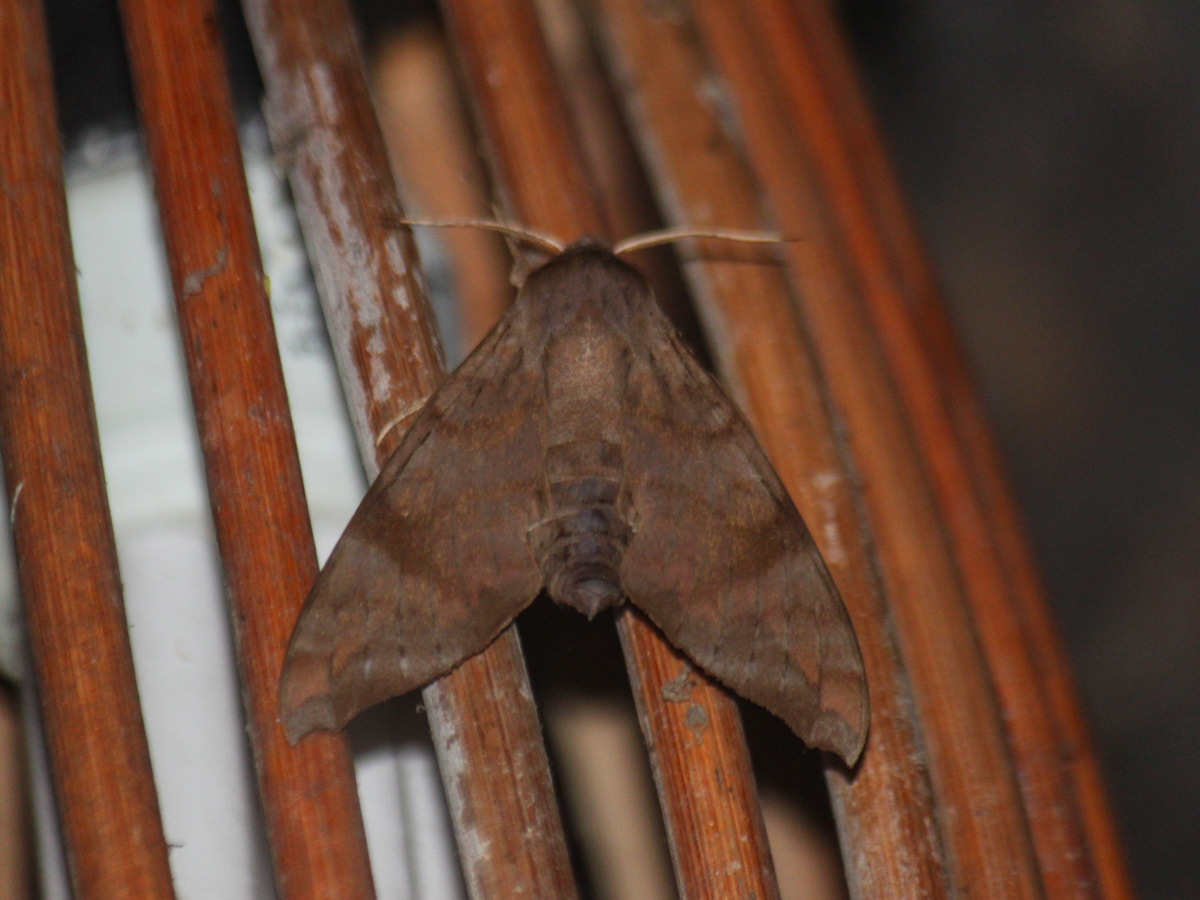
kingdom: Animalia
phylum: Arthropoda
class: Insecta
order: Lepidoptera
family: Sphingidae
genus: Acosmeryx
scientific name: Acosmeryx shervillii
